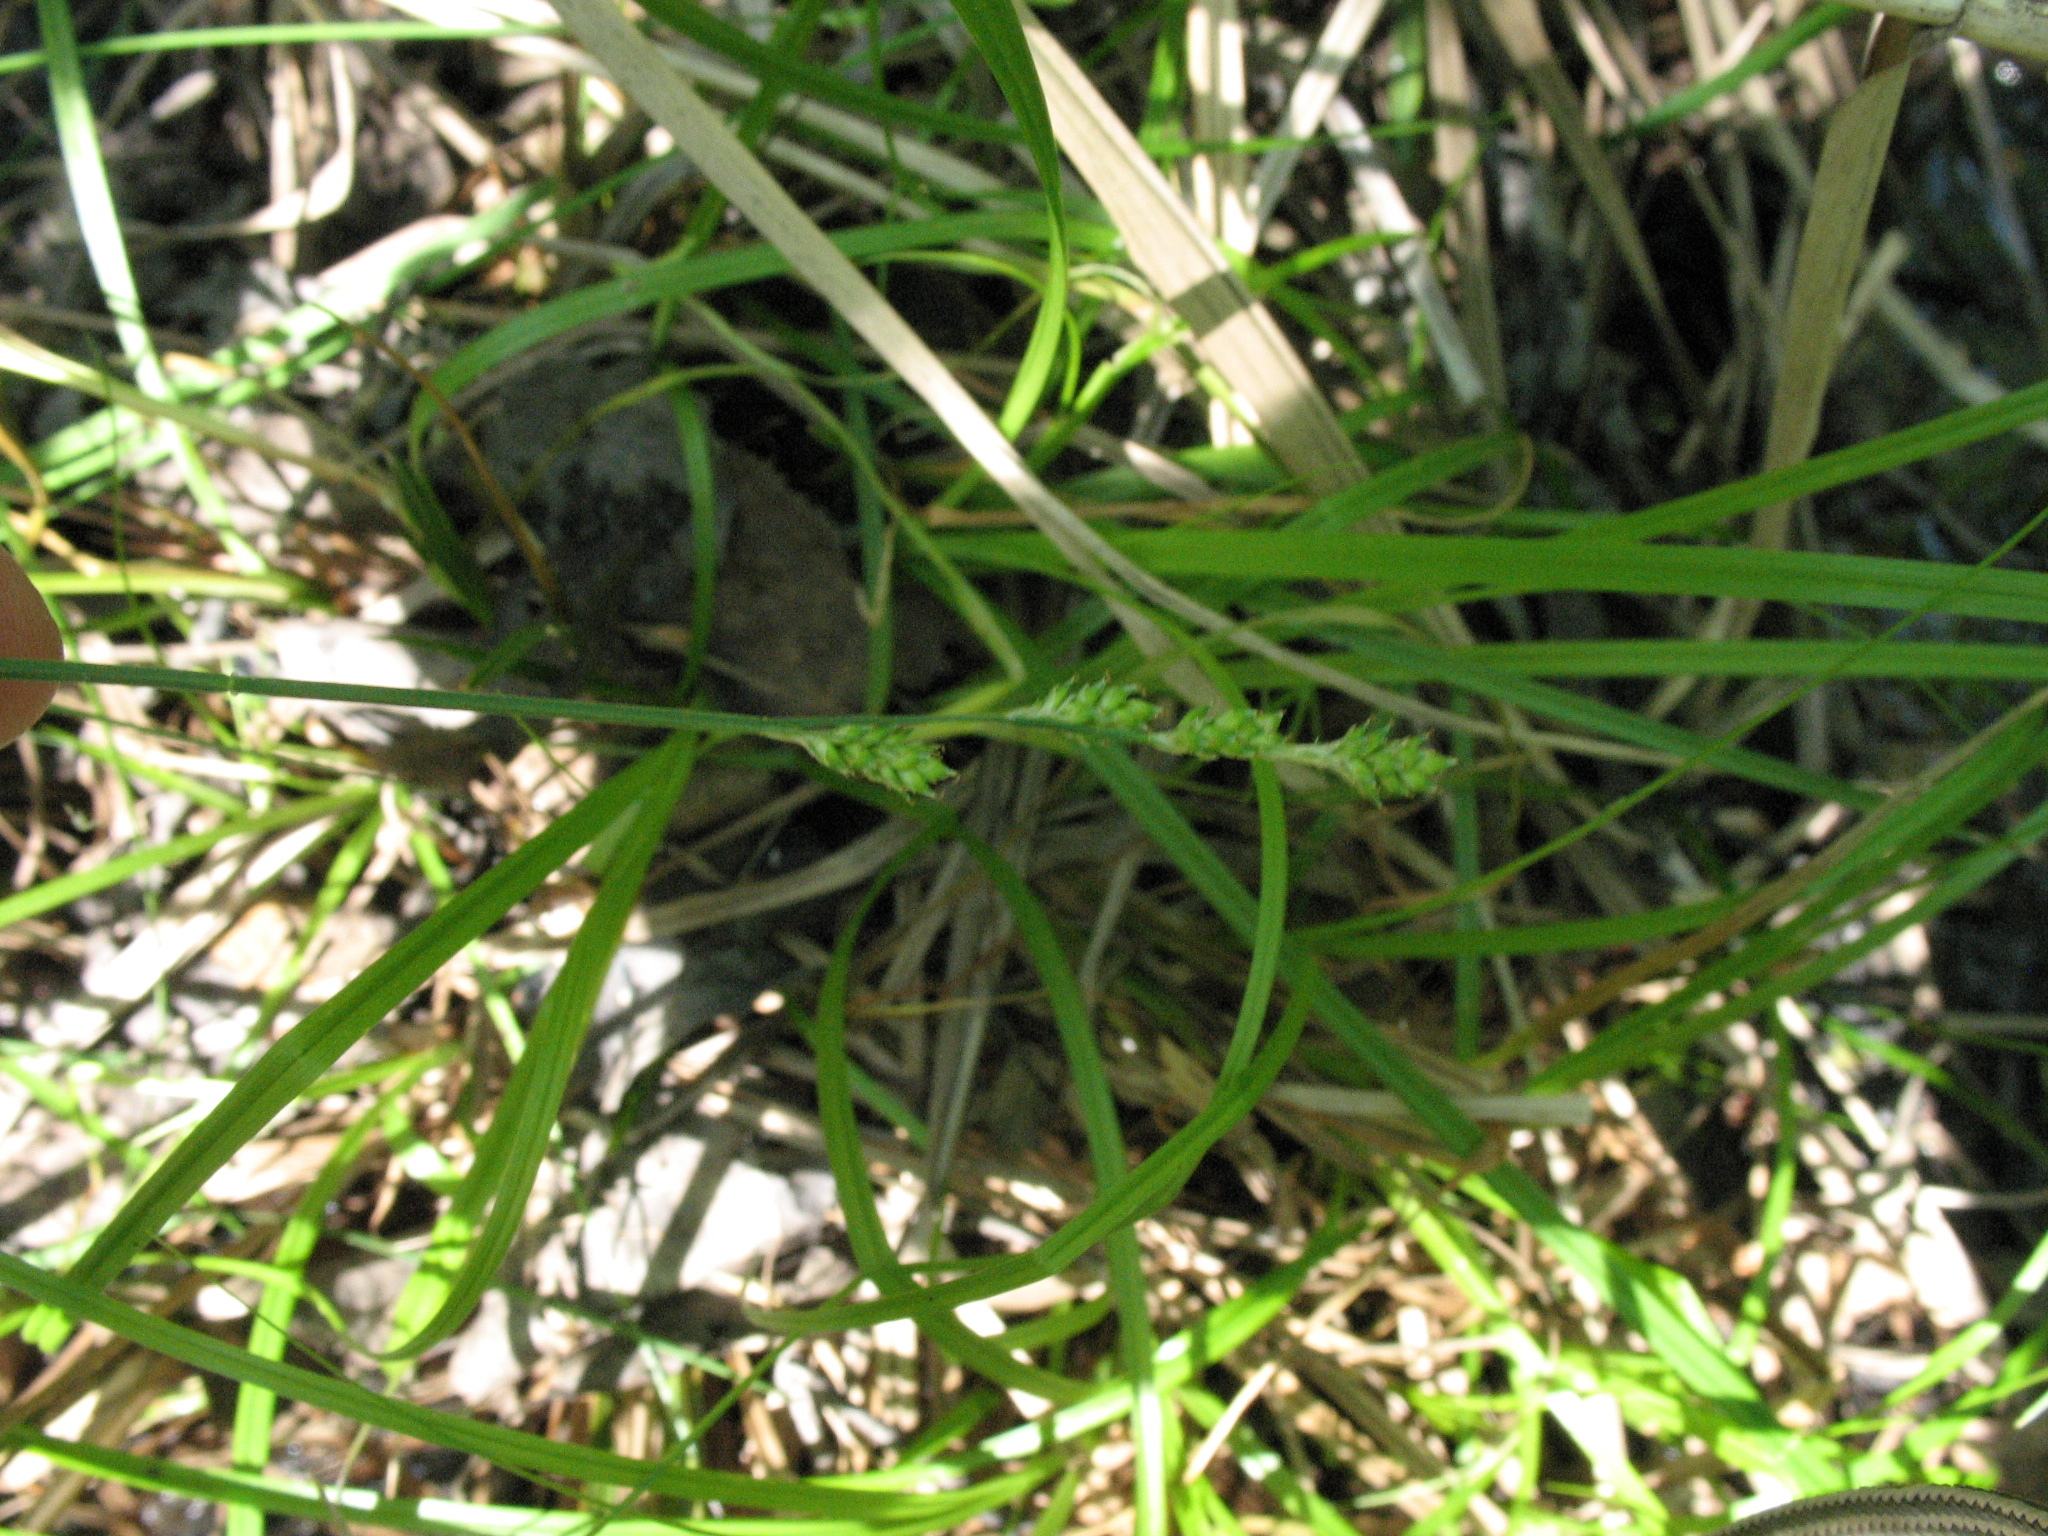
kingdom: Plantae
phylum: Tracheophyta
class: Liliopsida
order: Poales
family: Cyperaceae
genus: Carex
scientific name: Carex canescens
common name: White sedge
